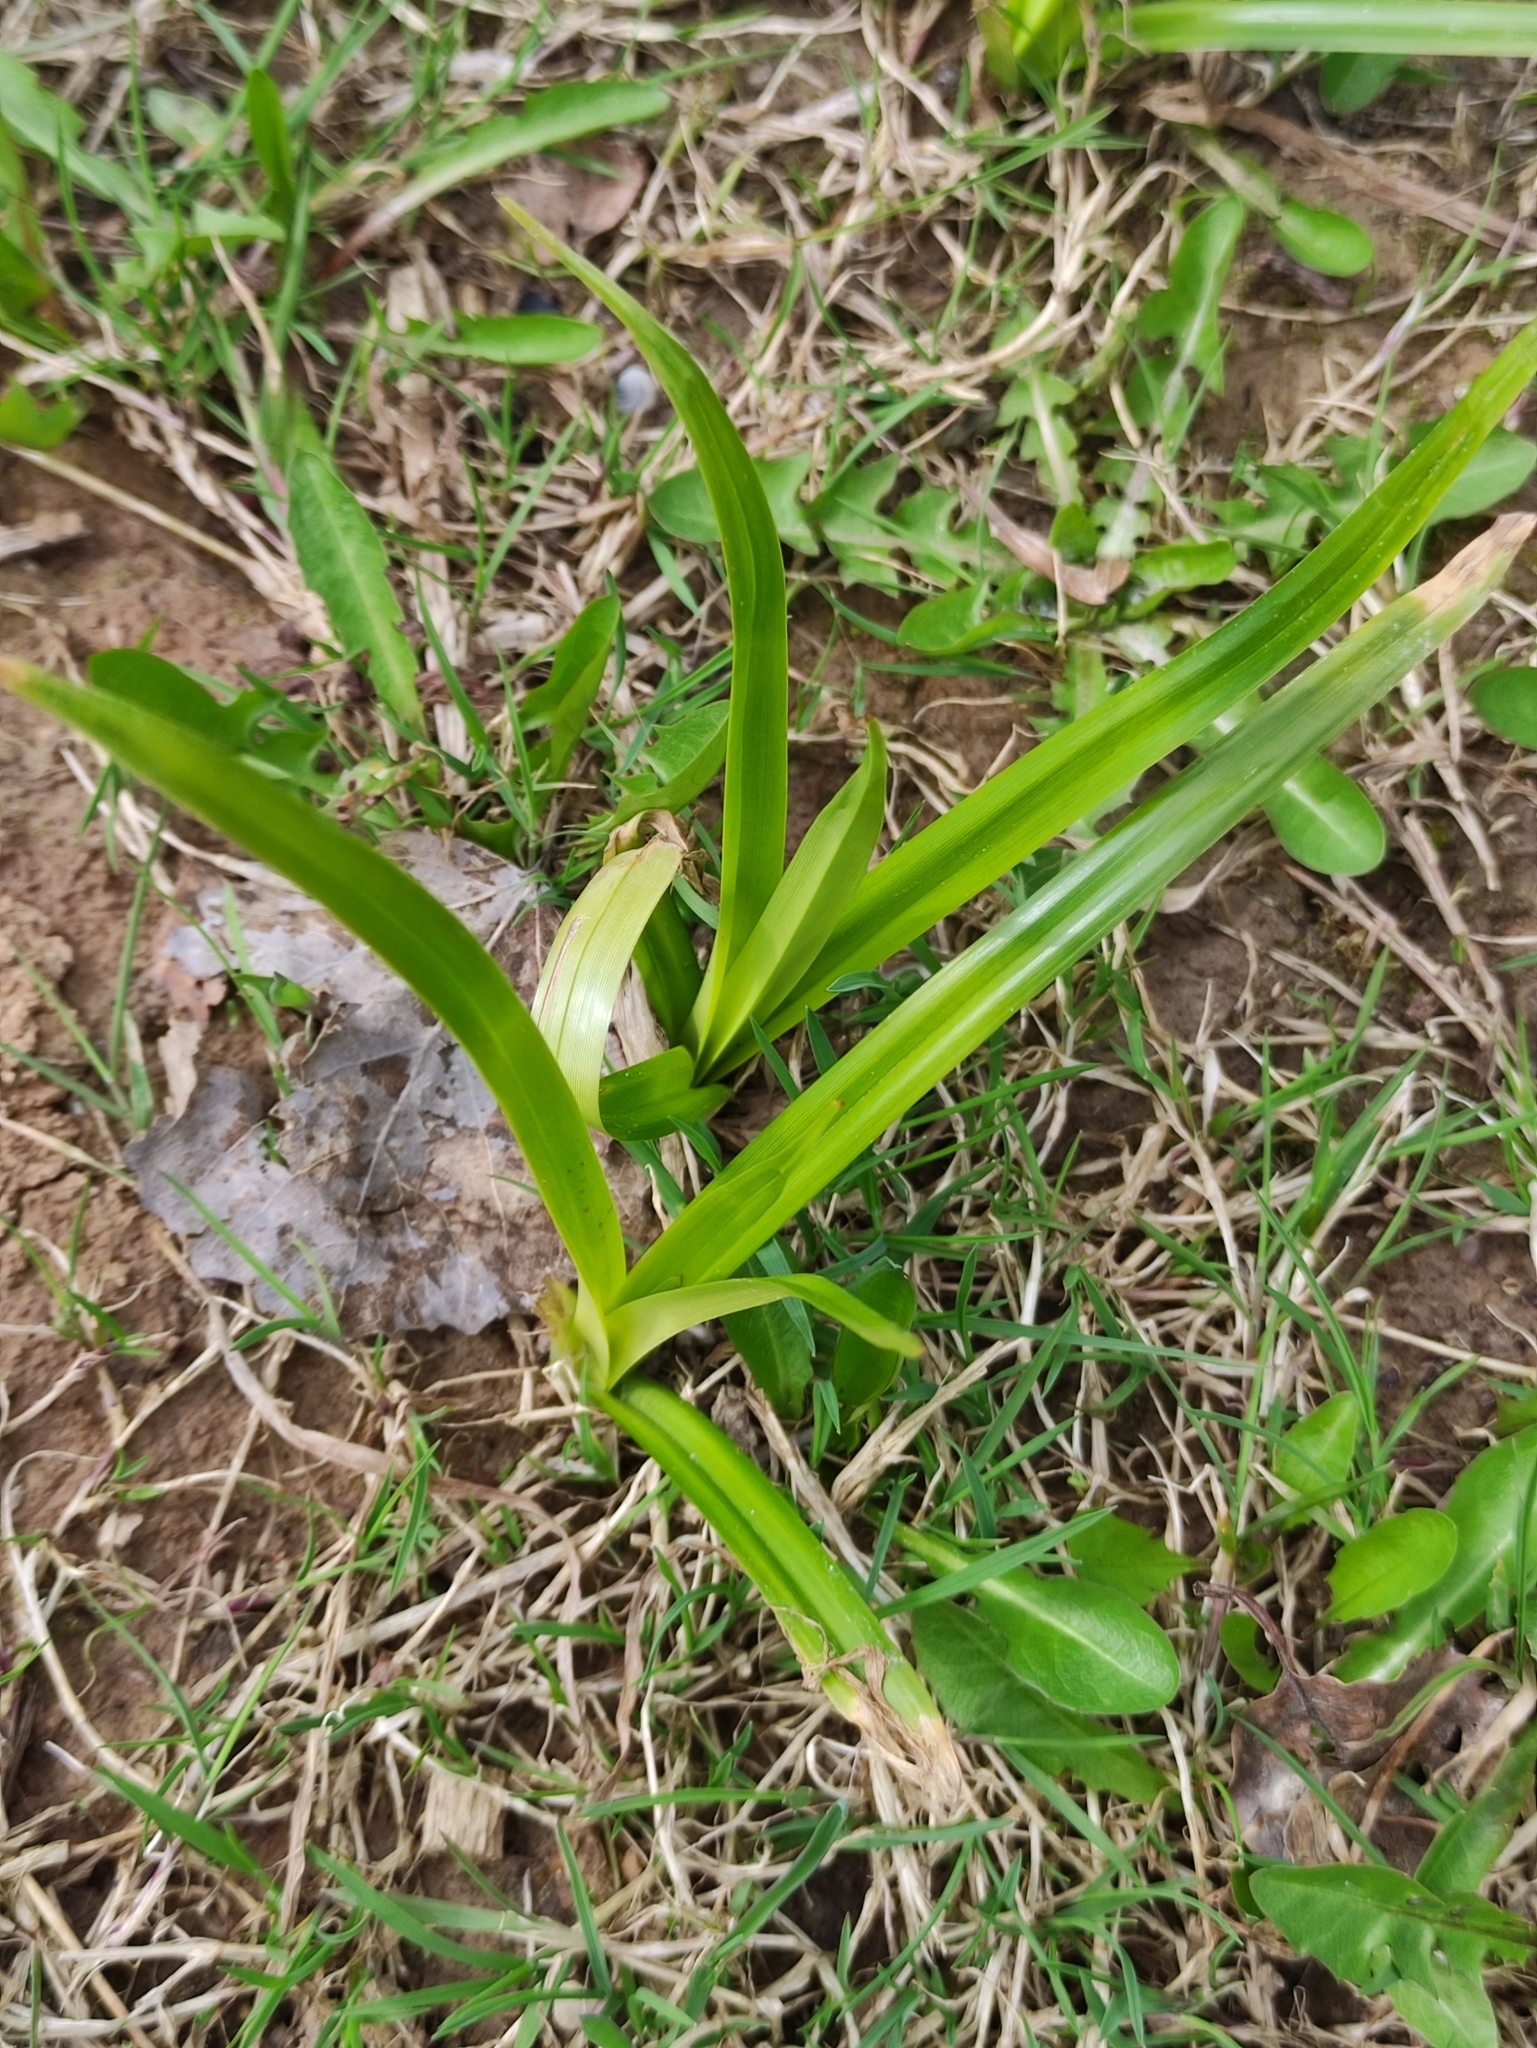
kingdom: Plantae
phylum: Tracheophyta
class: Liliopsida
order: Poales
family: Cyperaceae
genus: Scirpus
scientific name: Scirpus sylvaticus
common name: Wood club-rush
